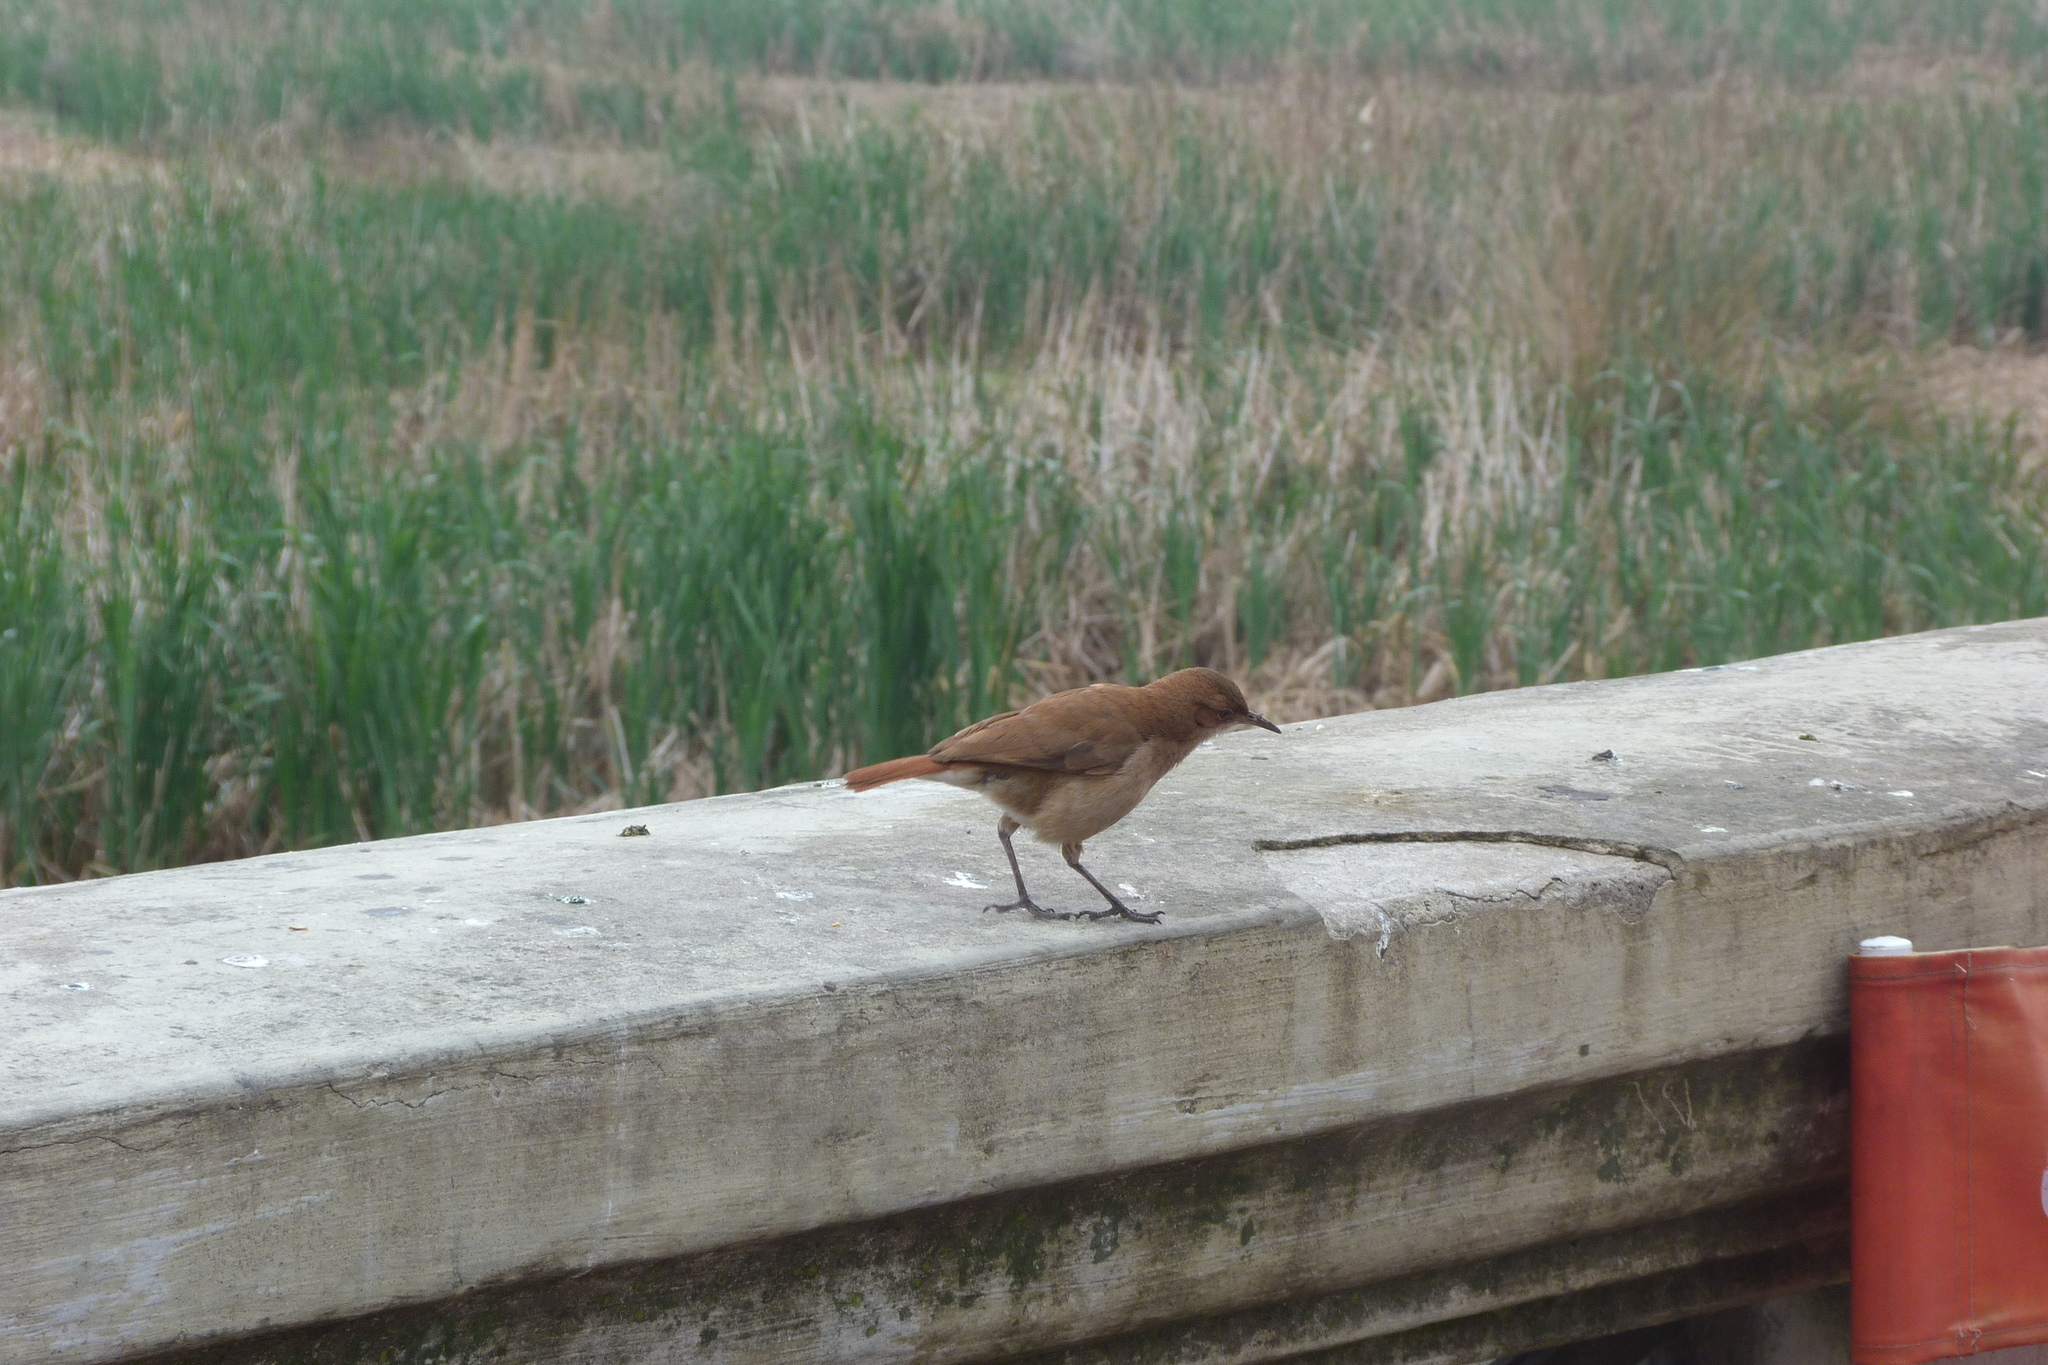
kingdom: Animalia
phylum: Chordata
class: Aves
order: Passeriformes
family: Furnariidae
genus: Furnarius
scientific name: Furnarius rufus
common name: Rufous hornero
